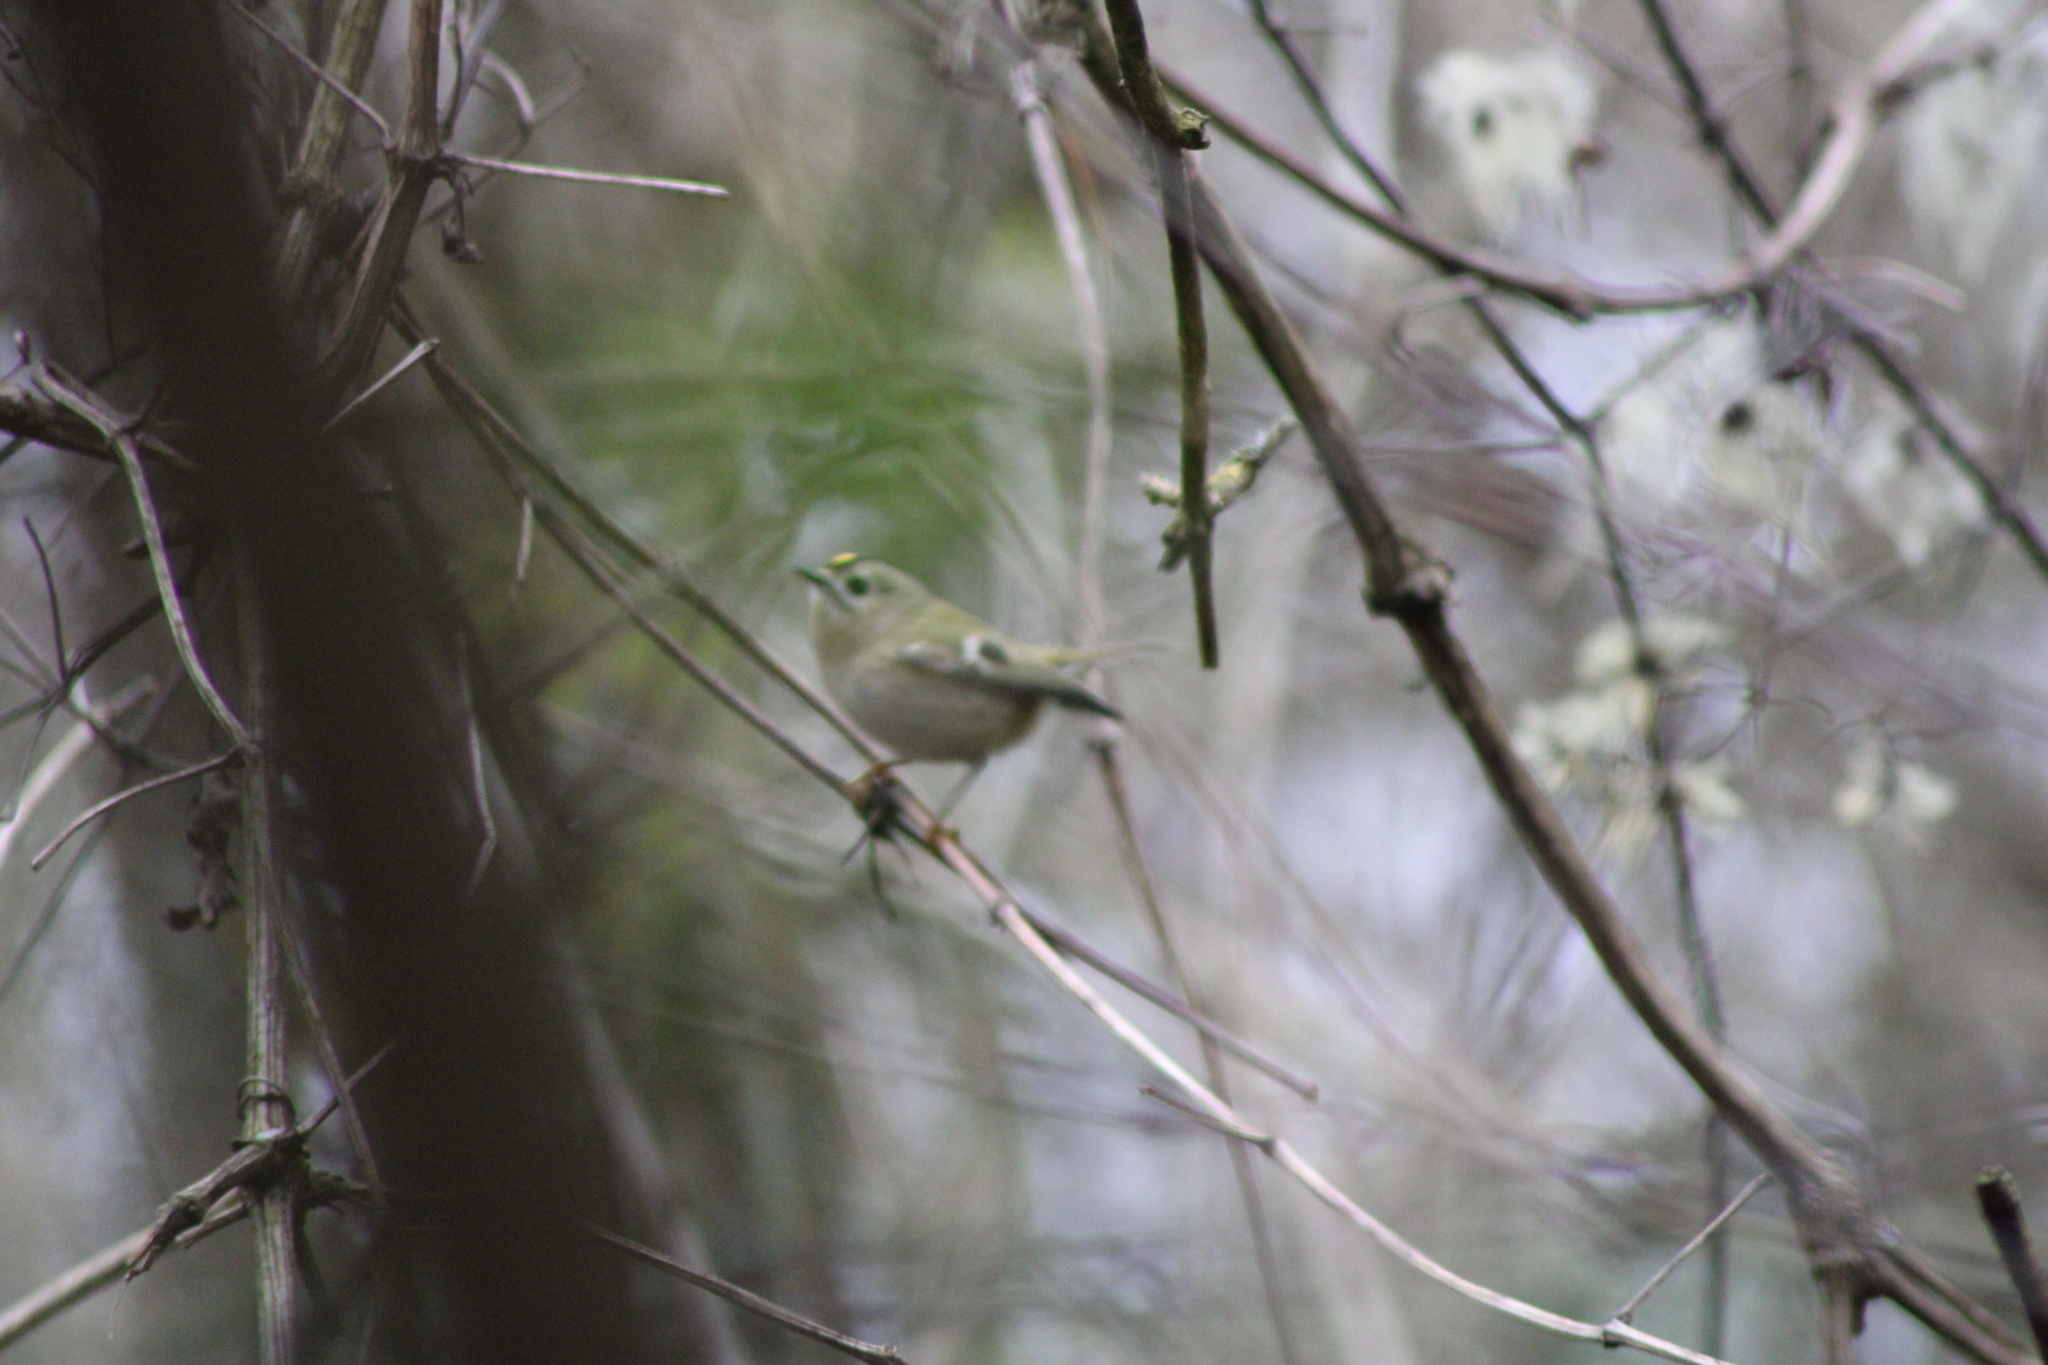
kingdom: Animalia
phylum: Chordata
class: Aves
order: Passeriformes
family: Regulidae
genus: Regulus
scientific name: Regulus regulus
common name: Goldcrest
